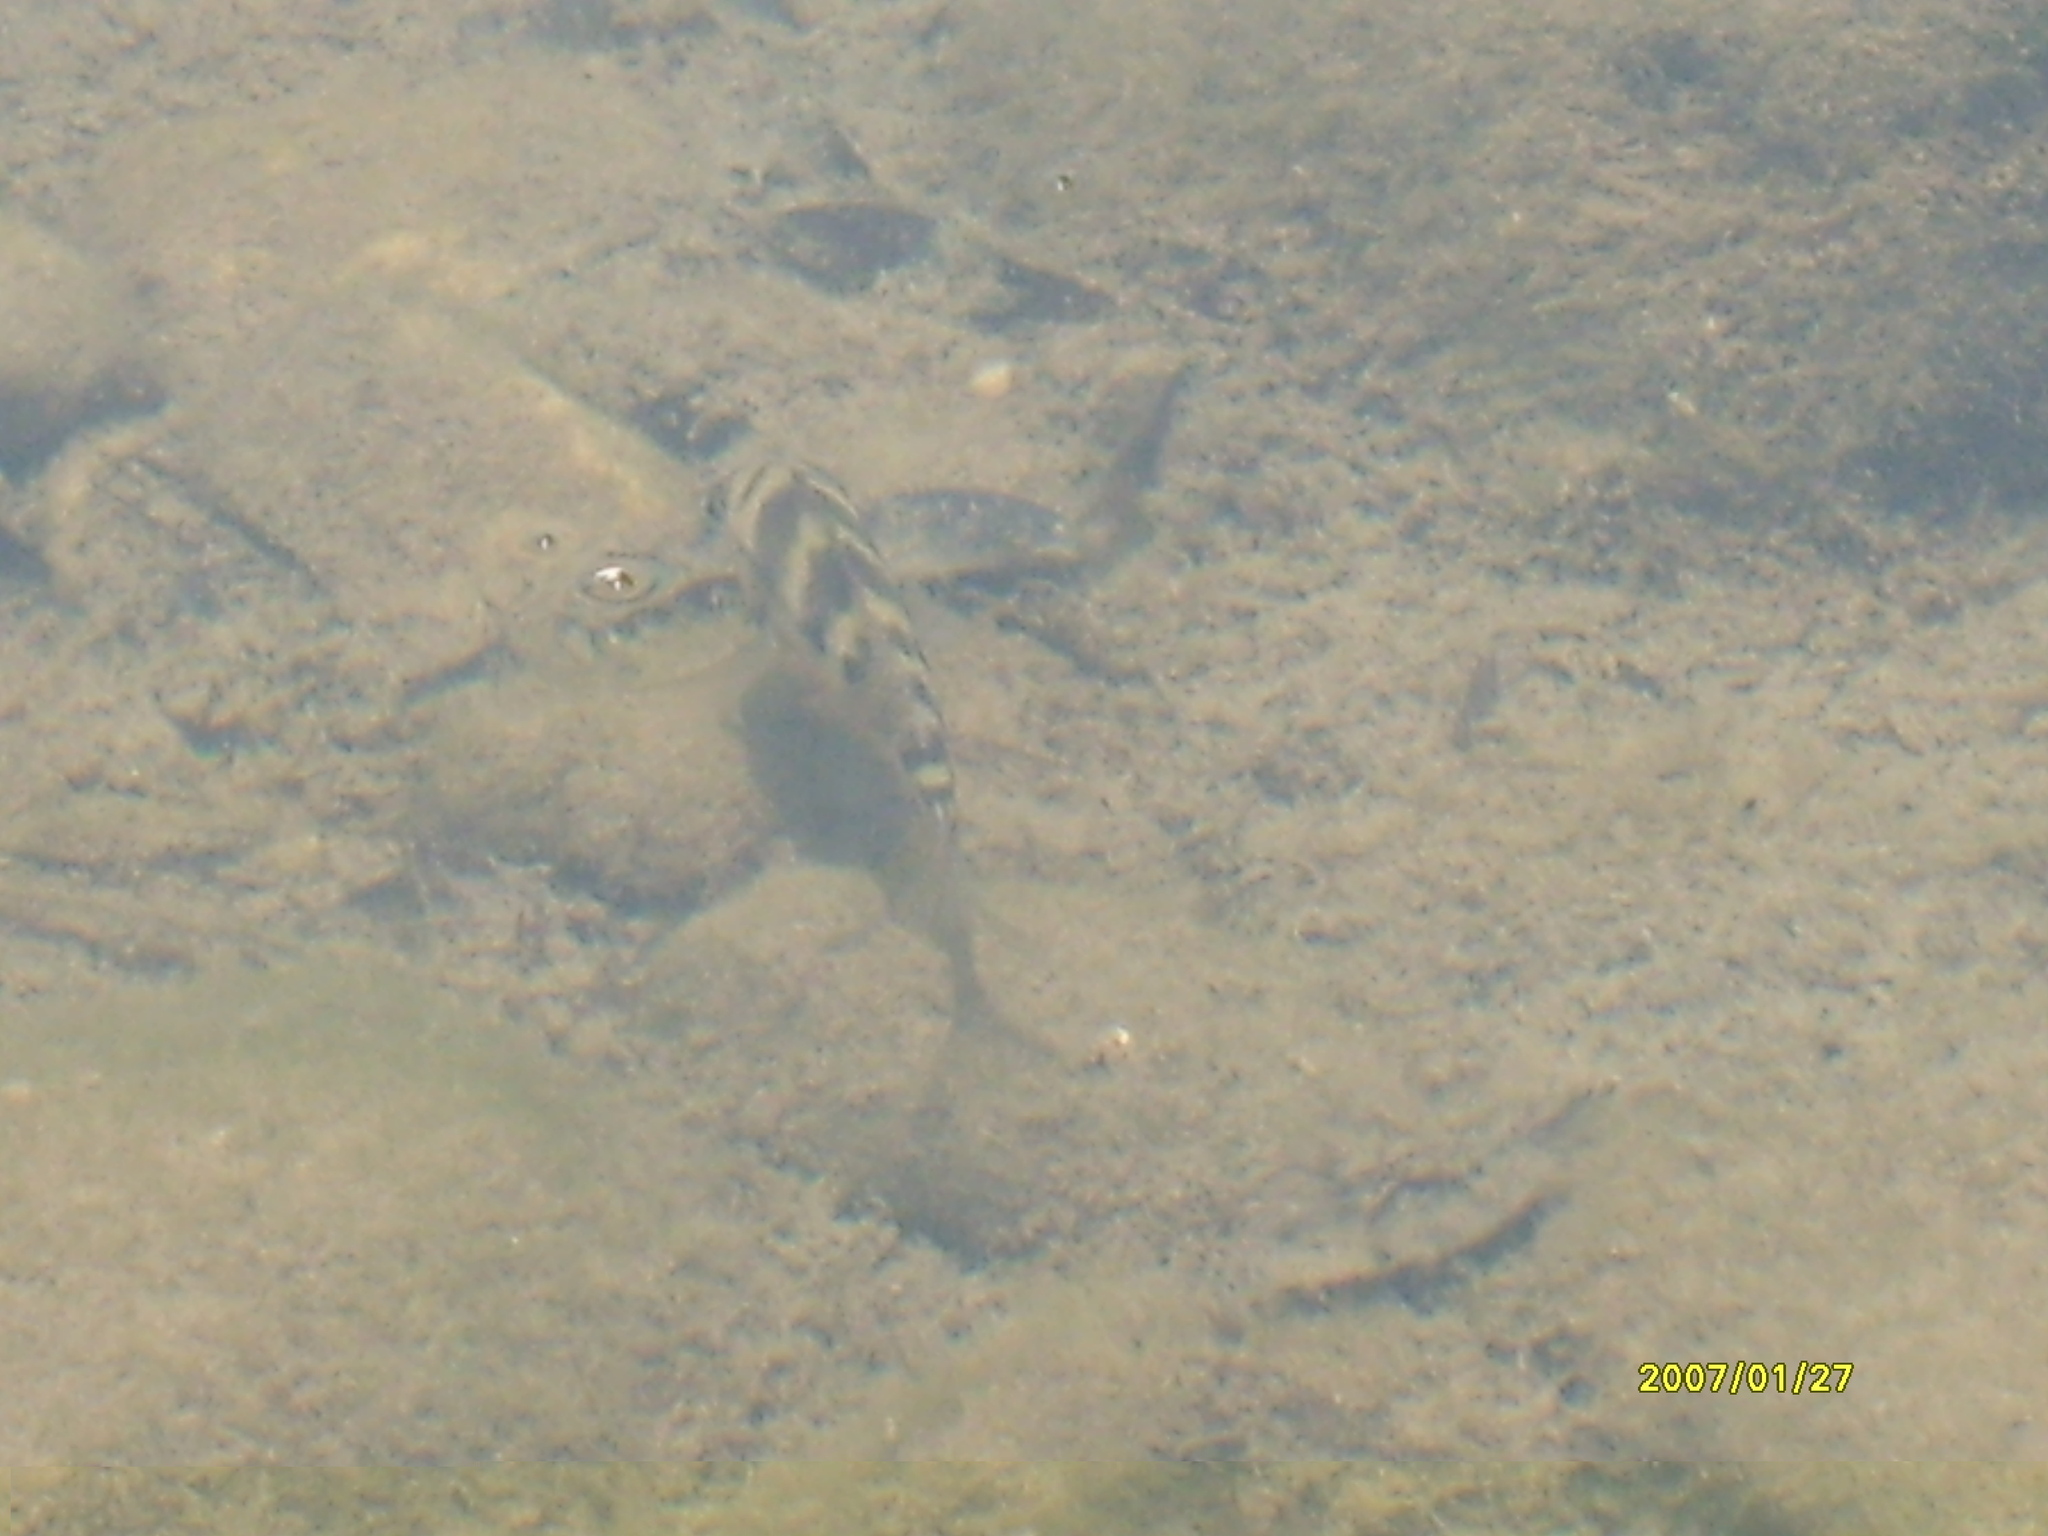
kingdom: Animalia
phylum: Chordata
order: Perciformes
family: Cichlidae
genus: Thorichthys
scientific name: Thorichthys maculipinnis
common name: Spotcheek cichlid
